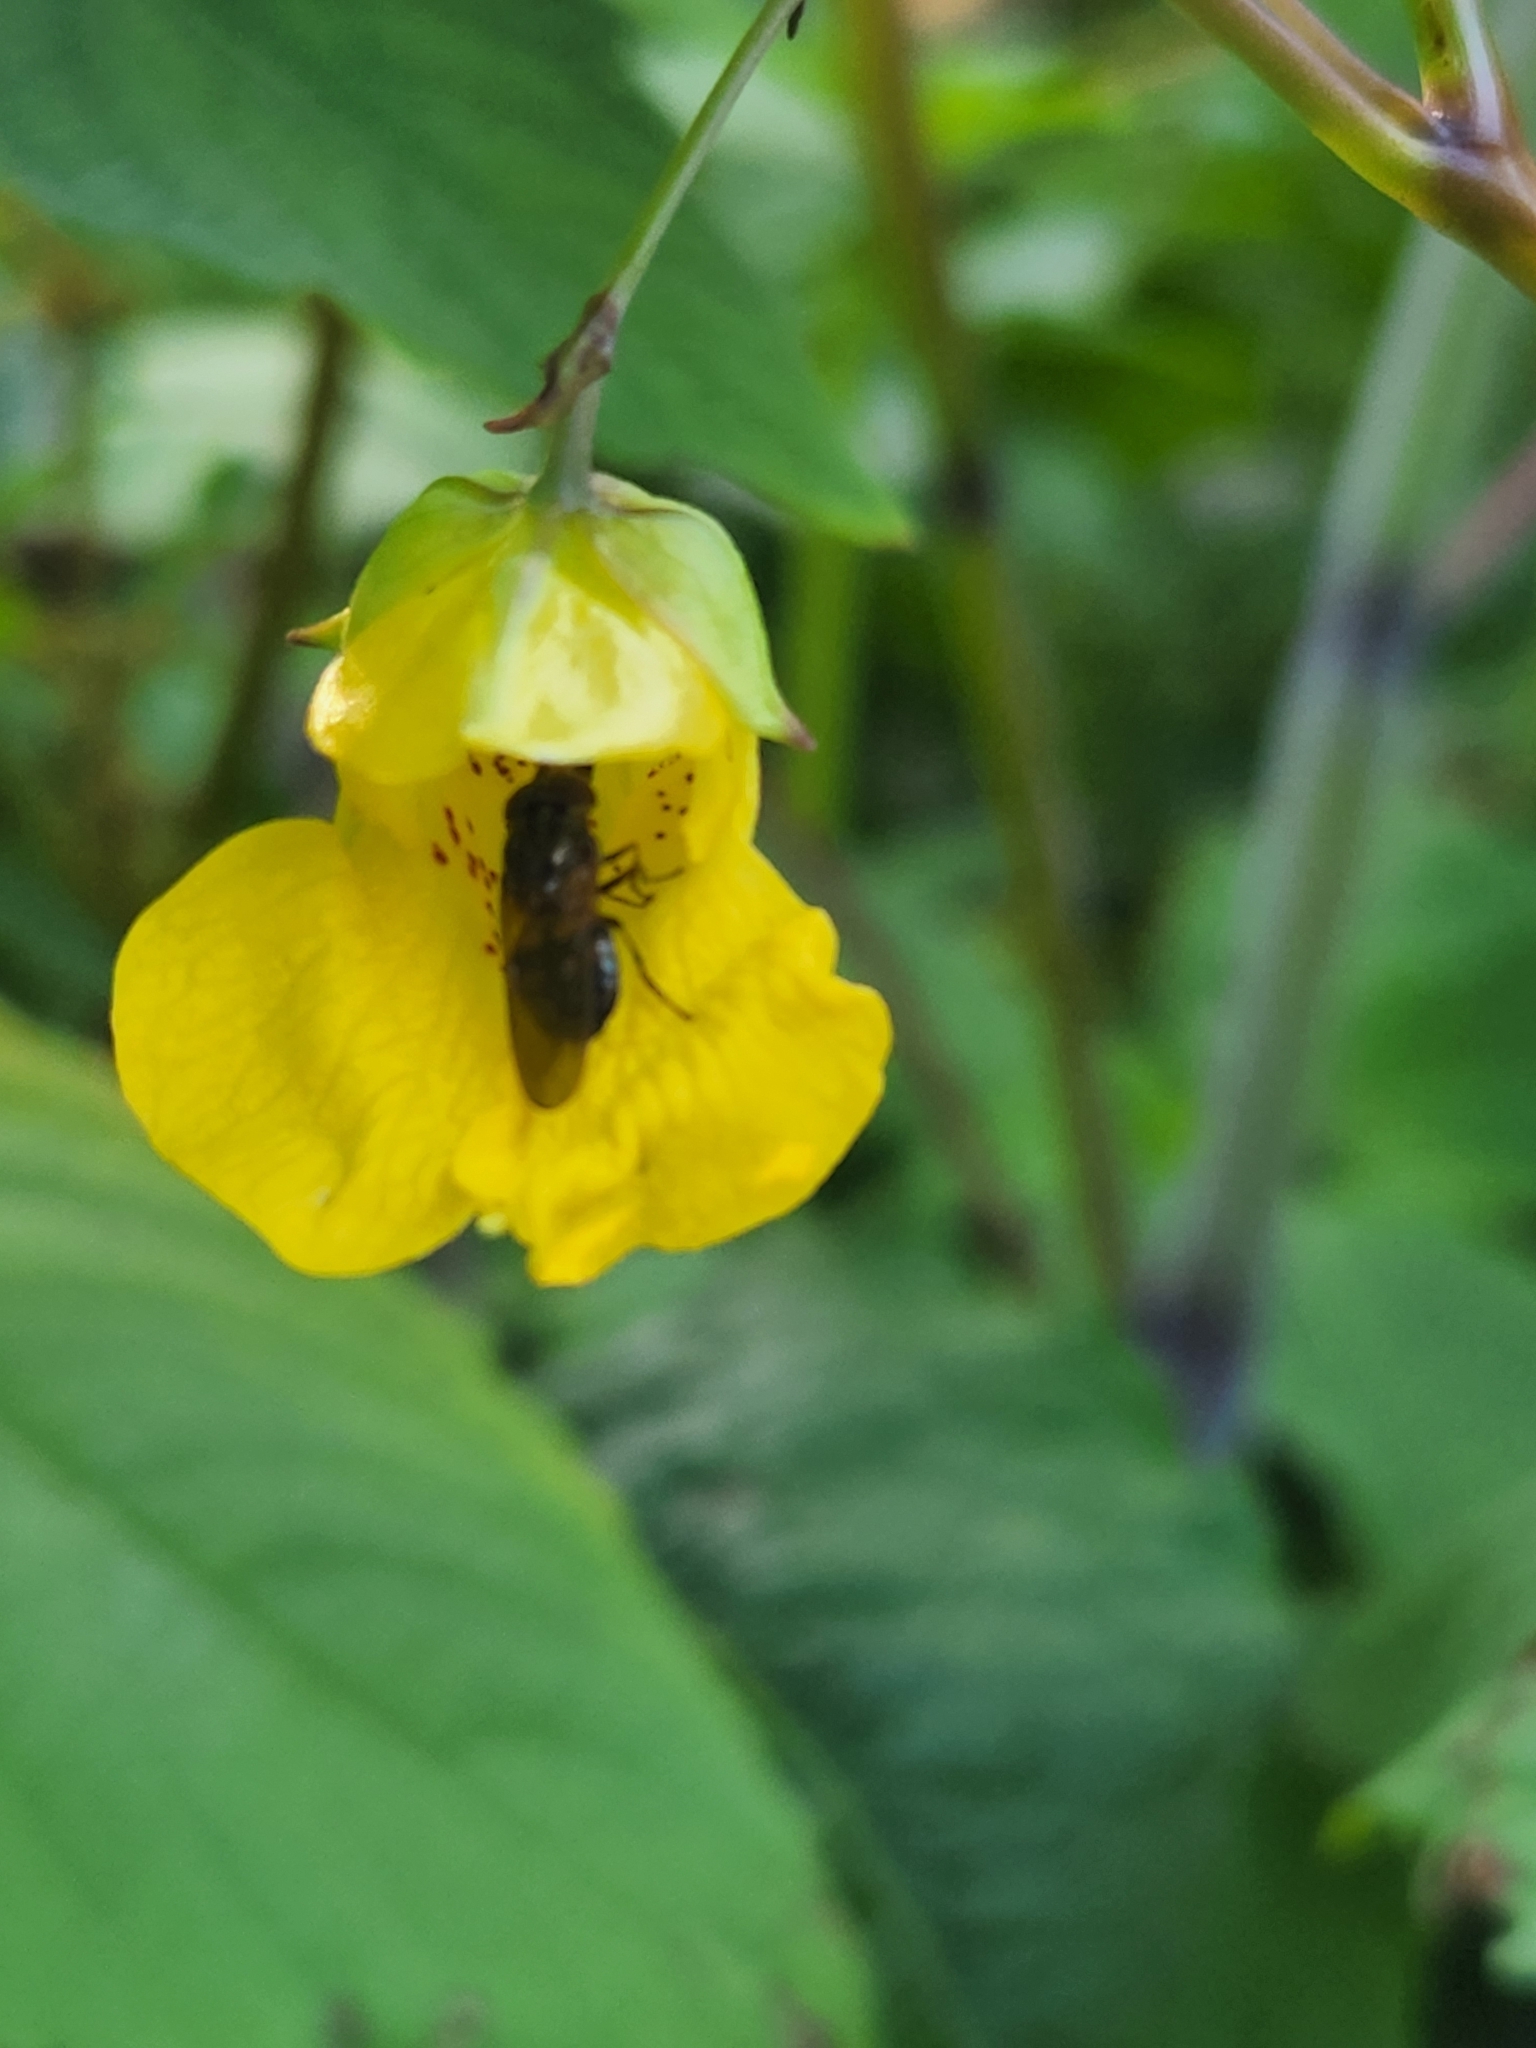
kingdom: Animalia
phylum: Arthropoda
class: Insecta
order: Diptera
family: Syrphidae
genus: Rhingia
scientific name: Rhingia nasica
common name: American snout fly
